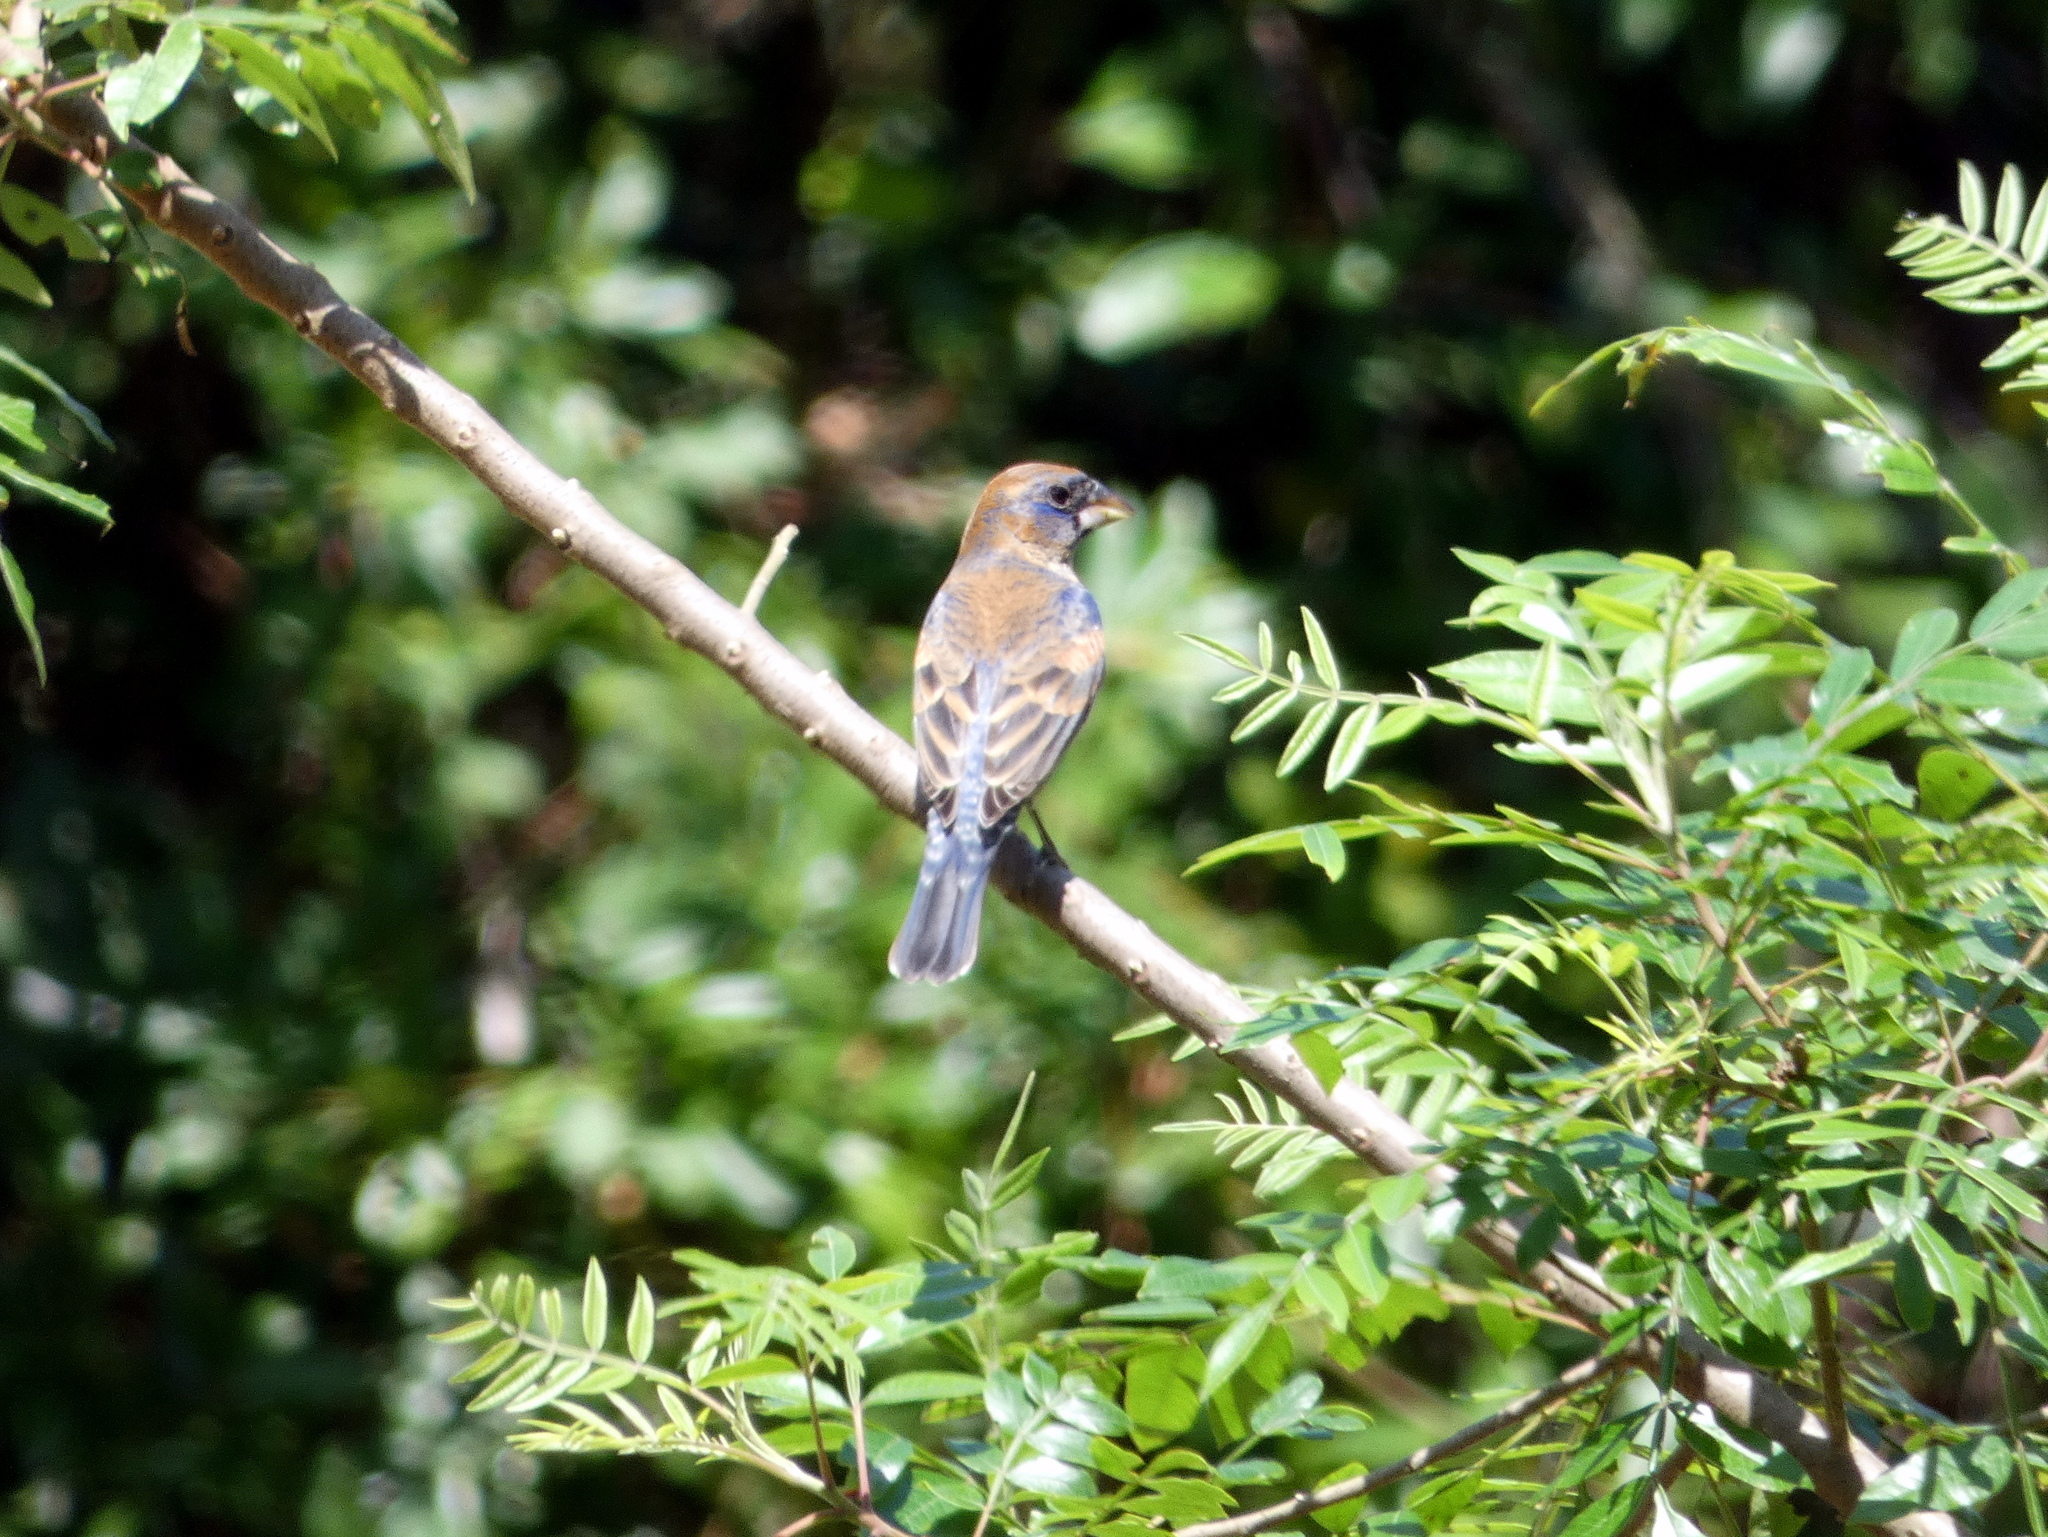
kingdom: Animalia
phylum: Chordata
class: Aves
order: Passeriformes
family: Cardinalidae
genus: Passerina
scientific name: Passerina caerulea
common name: Blue grosbeak
